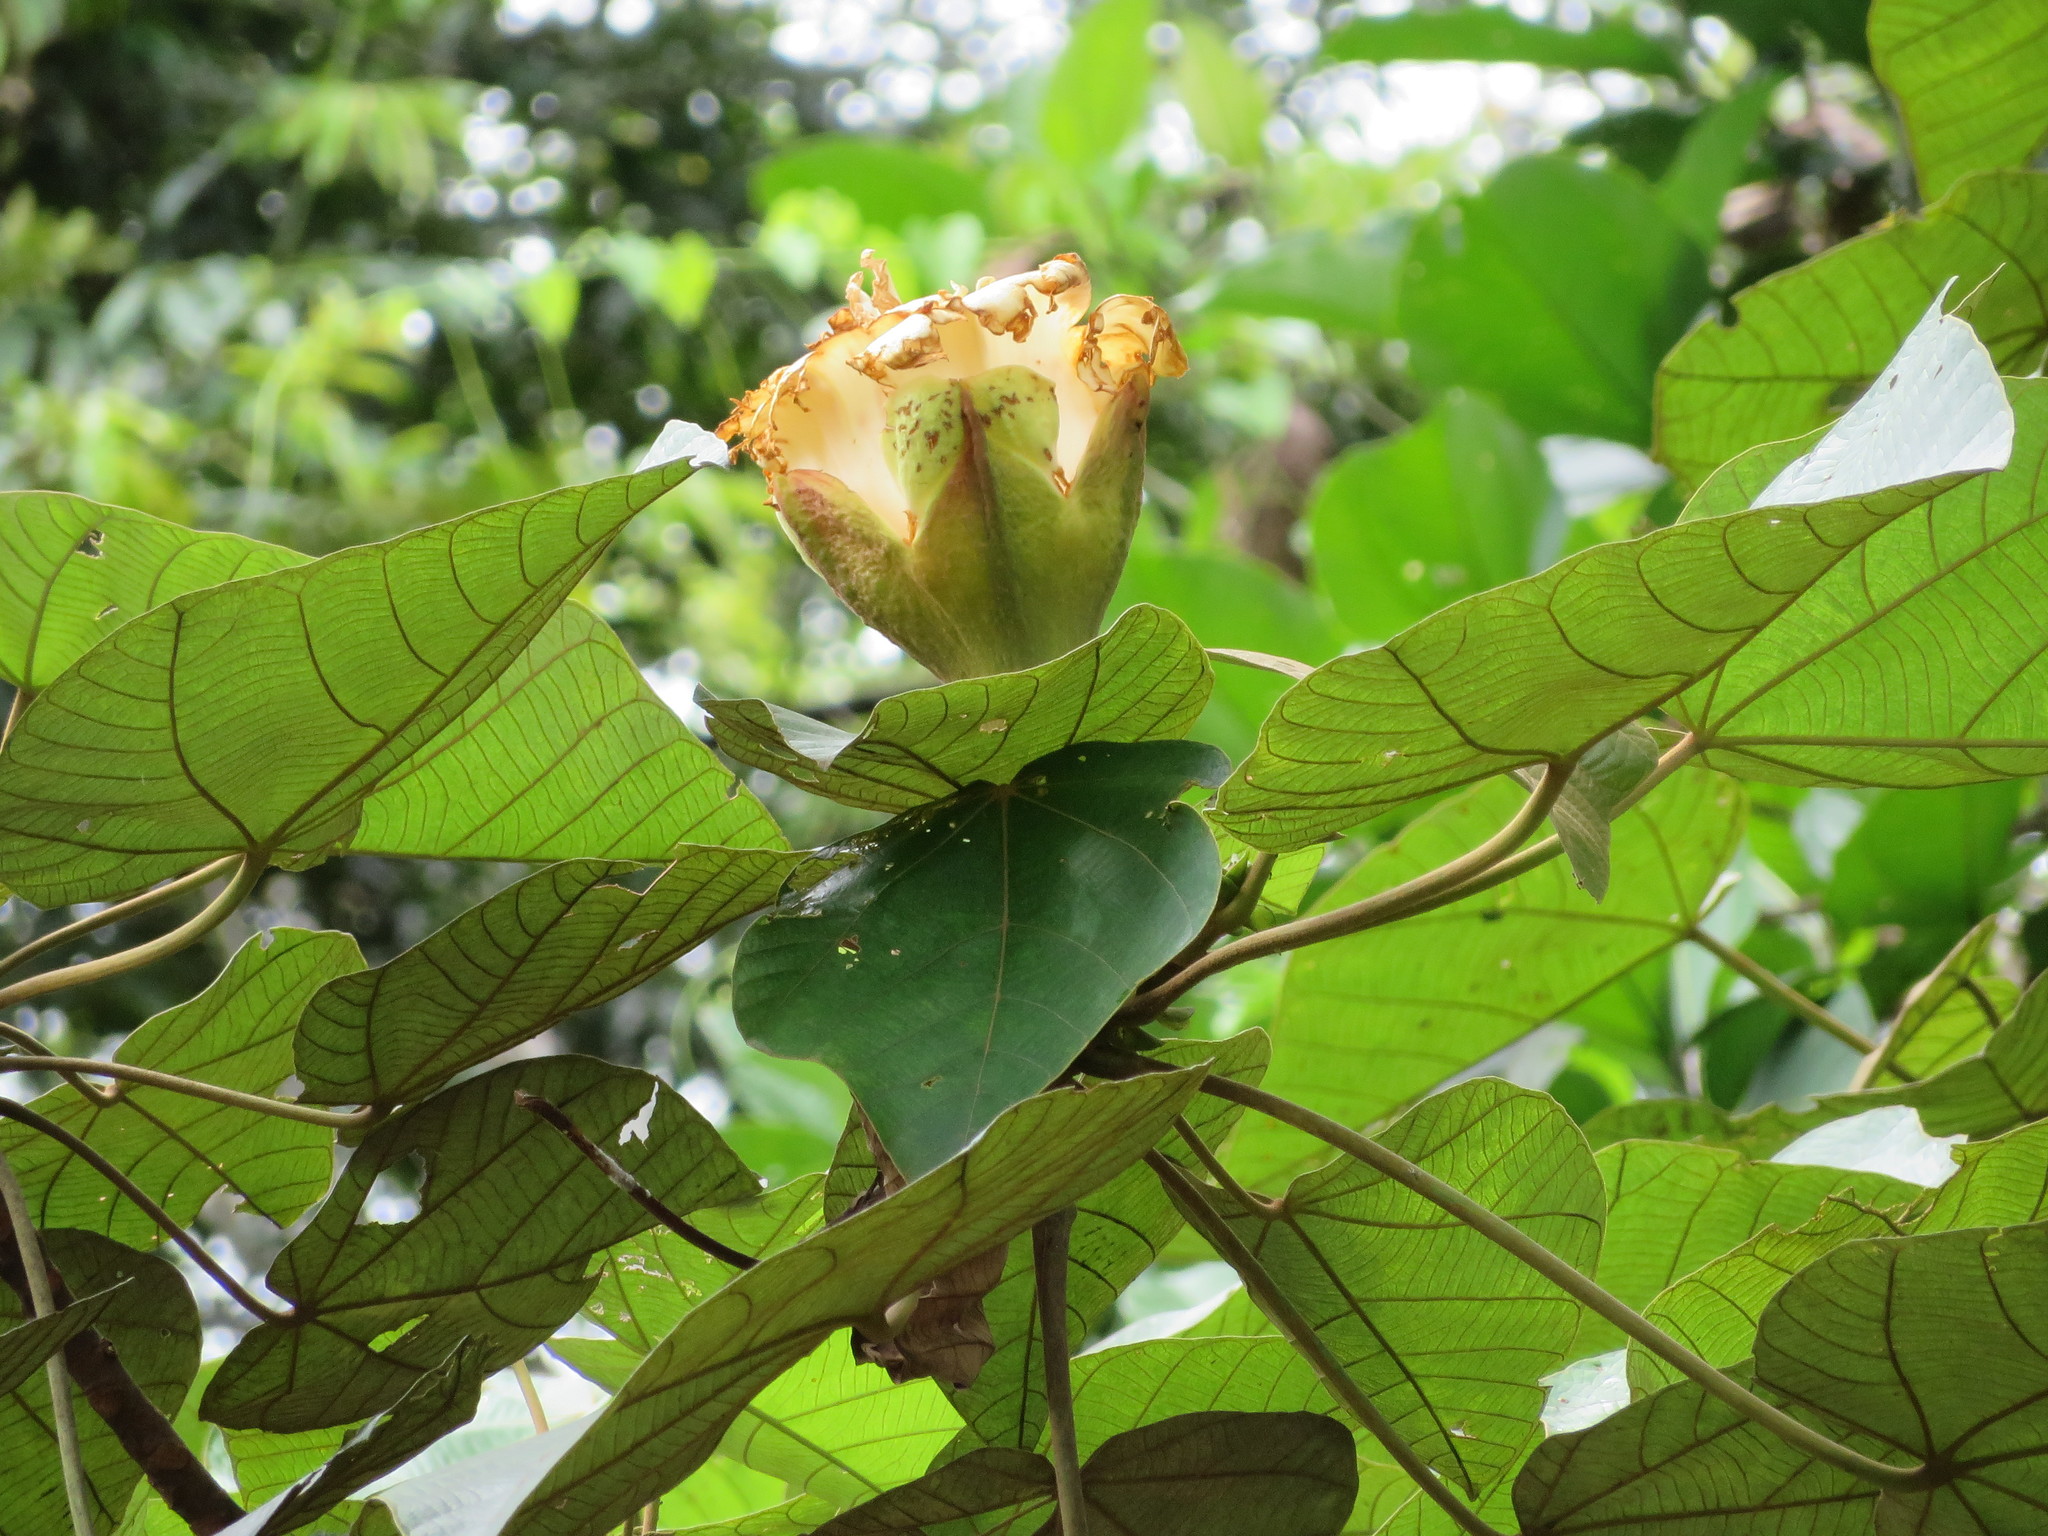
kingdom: Plantae
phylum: Tracheophyta
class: Magnoliopsida
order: Malvales
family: Malvaceae
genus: Ochroma
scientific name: Ochroma pyramidale
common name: Balsa
